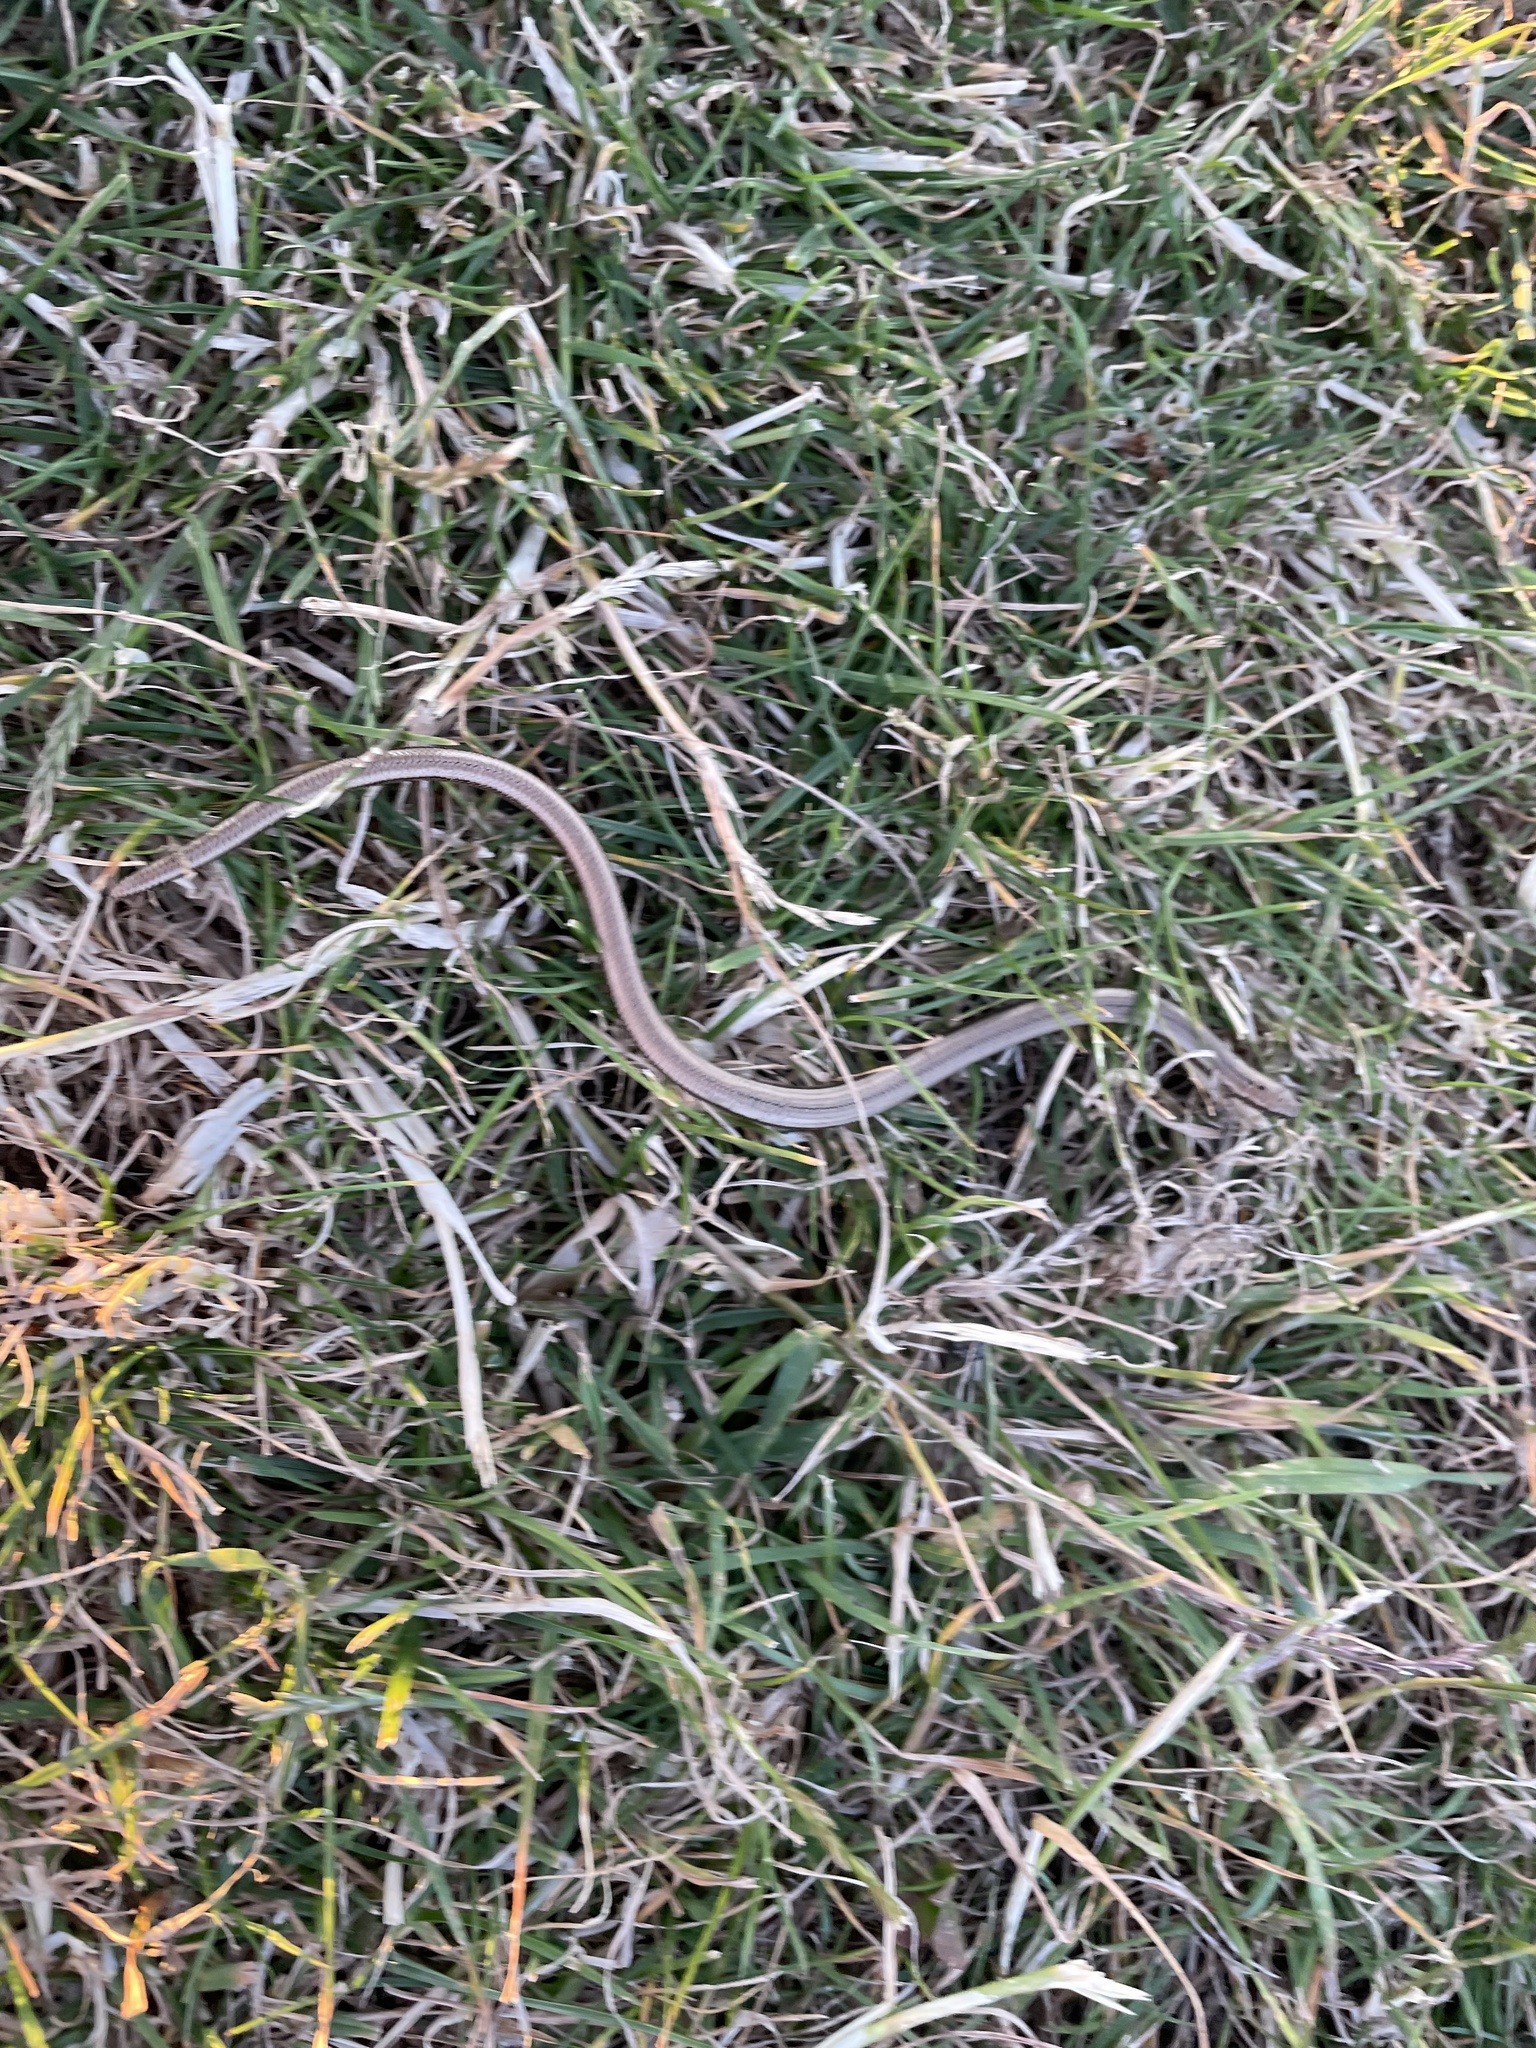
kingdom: Animalia
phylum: Chordata
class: Squamata
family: Anguidae
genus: Anguis
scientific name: Anguis fragilis
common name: Slow worm
